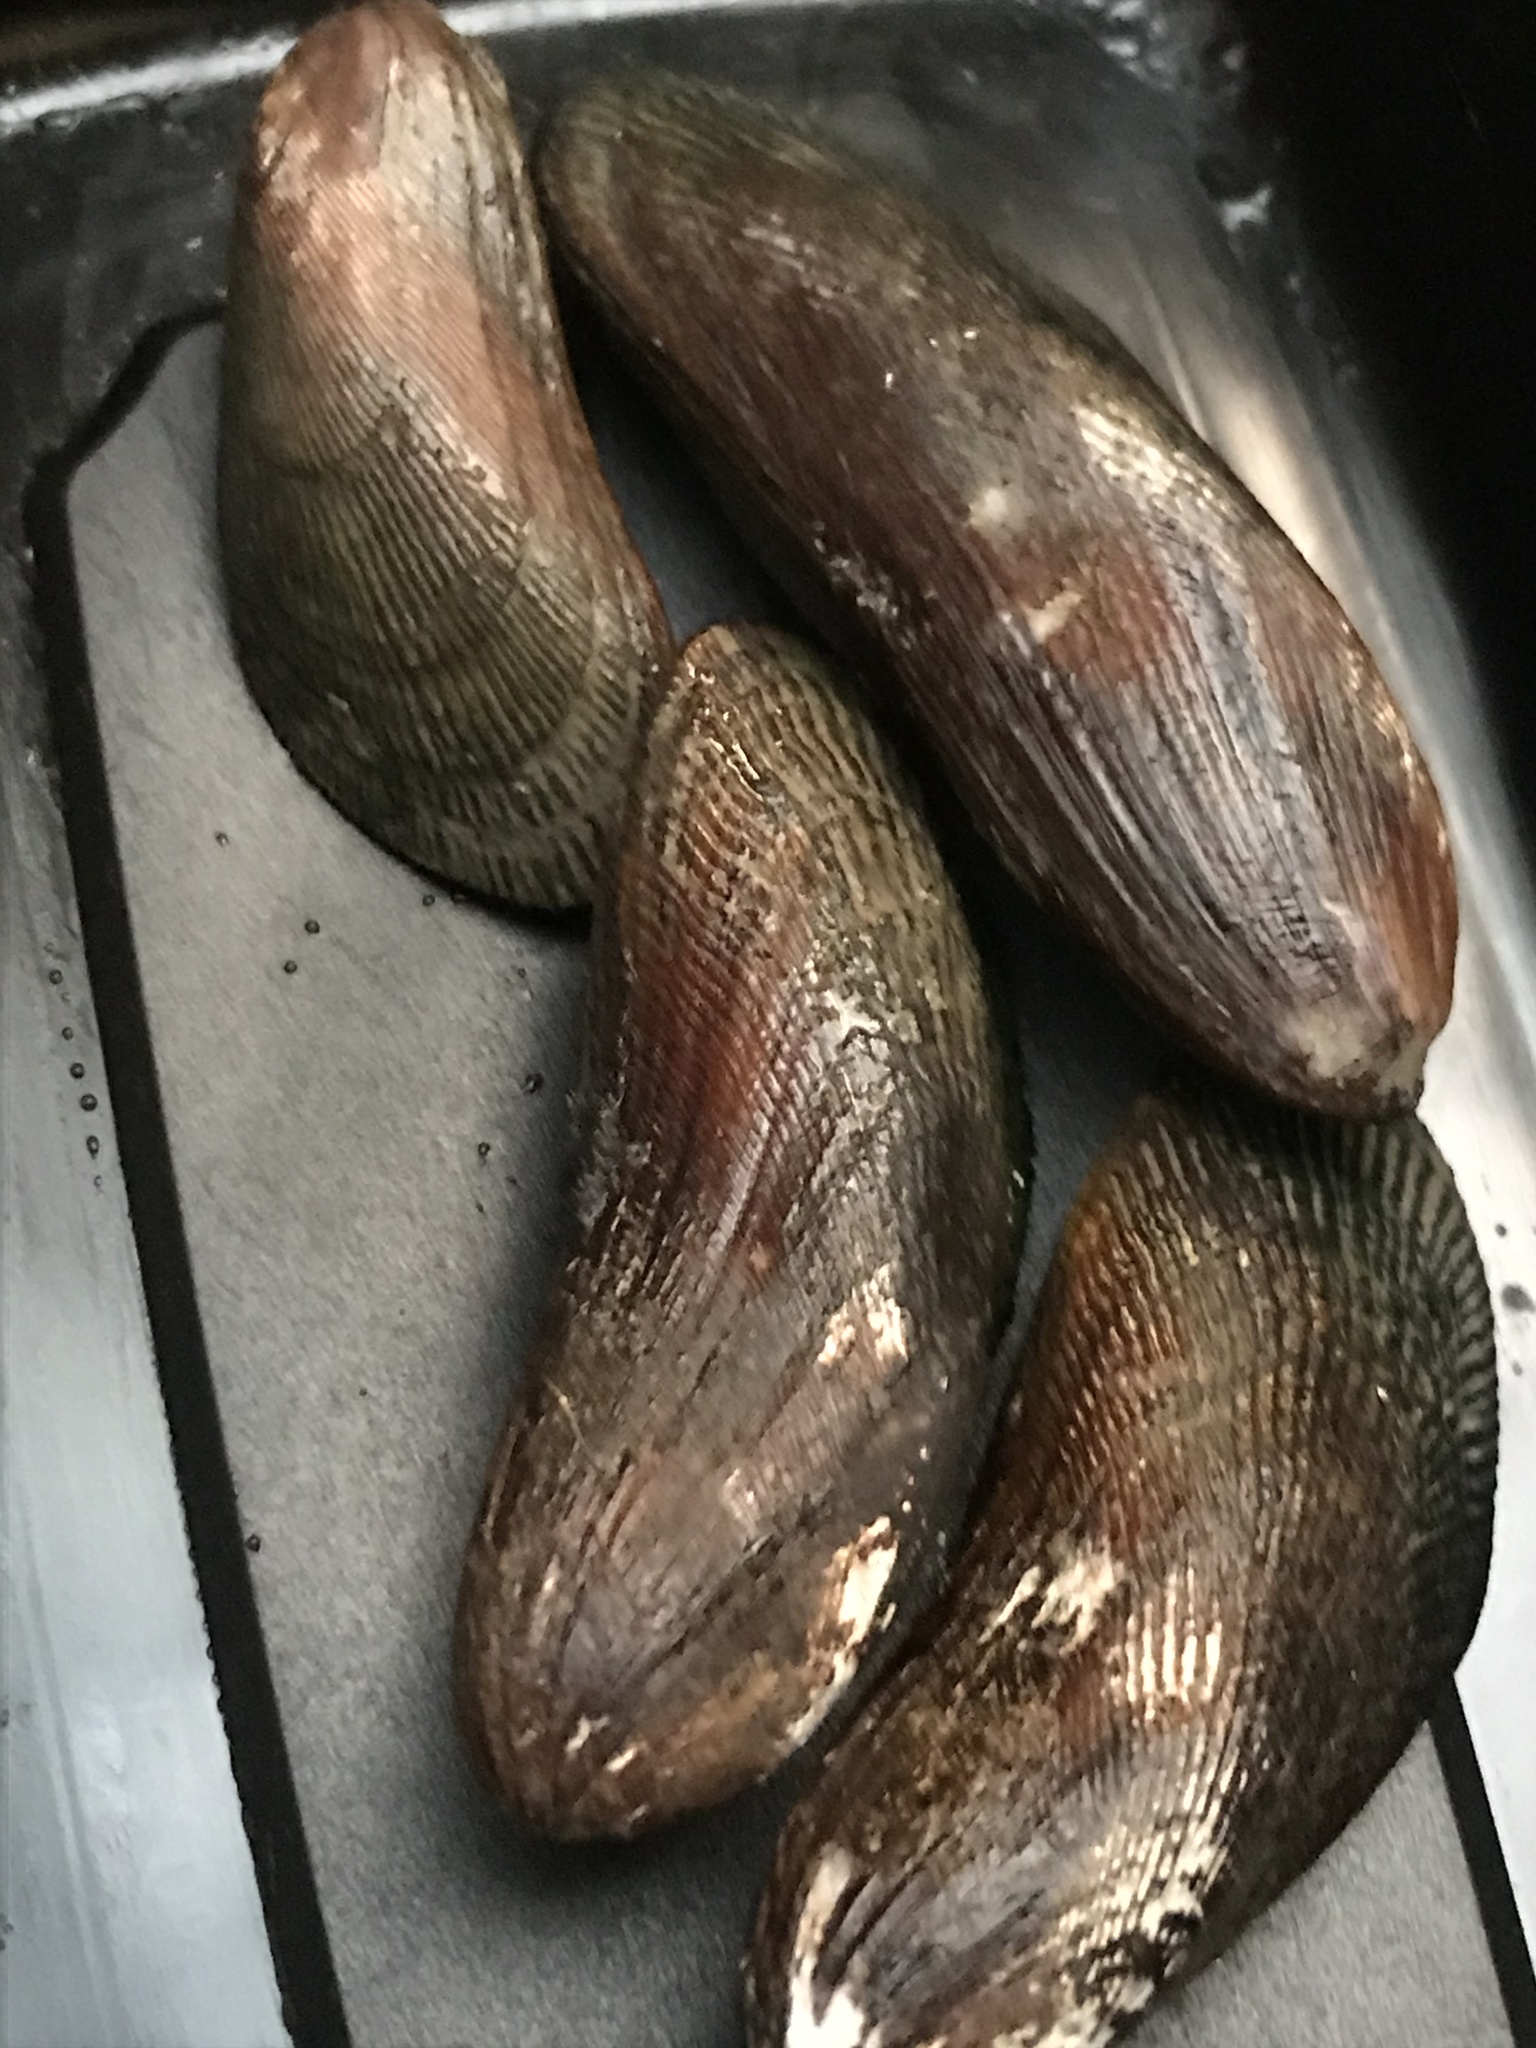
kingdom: Animalia
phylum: Mollusca
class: Bivalvia
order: Mytilida
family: Mytilidae
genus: Geukensia
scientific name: Geukensia demissa
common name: Ribbed mussel
